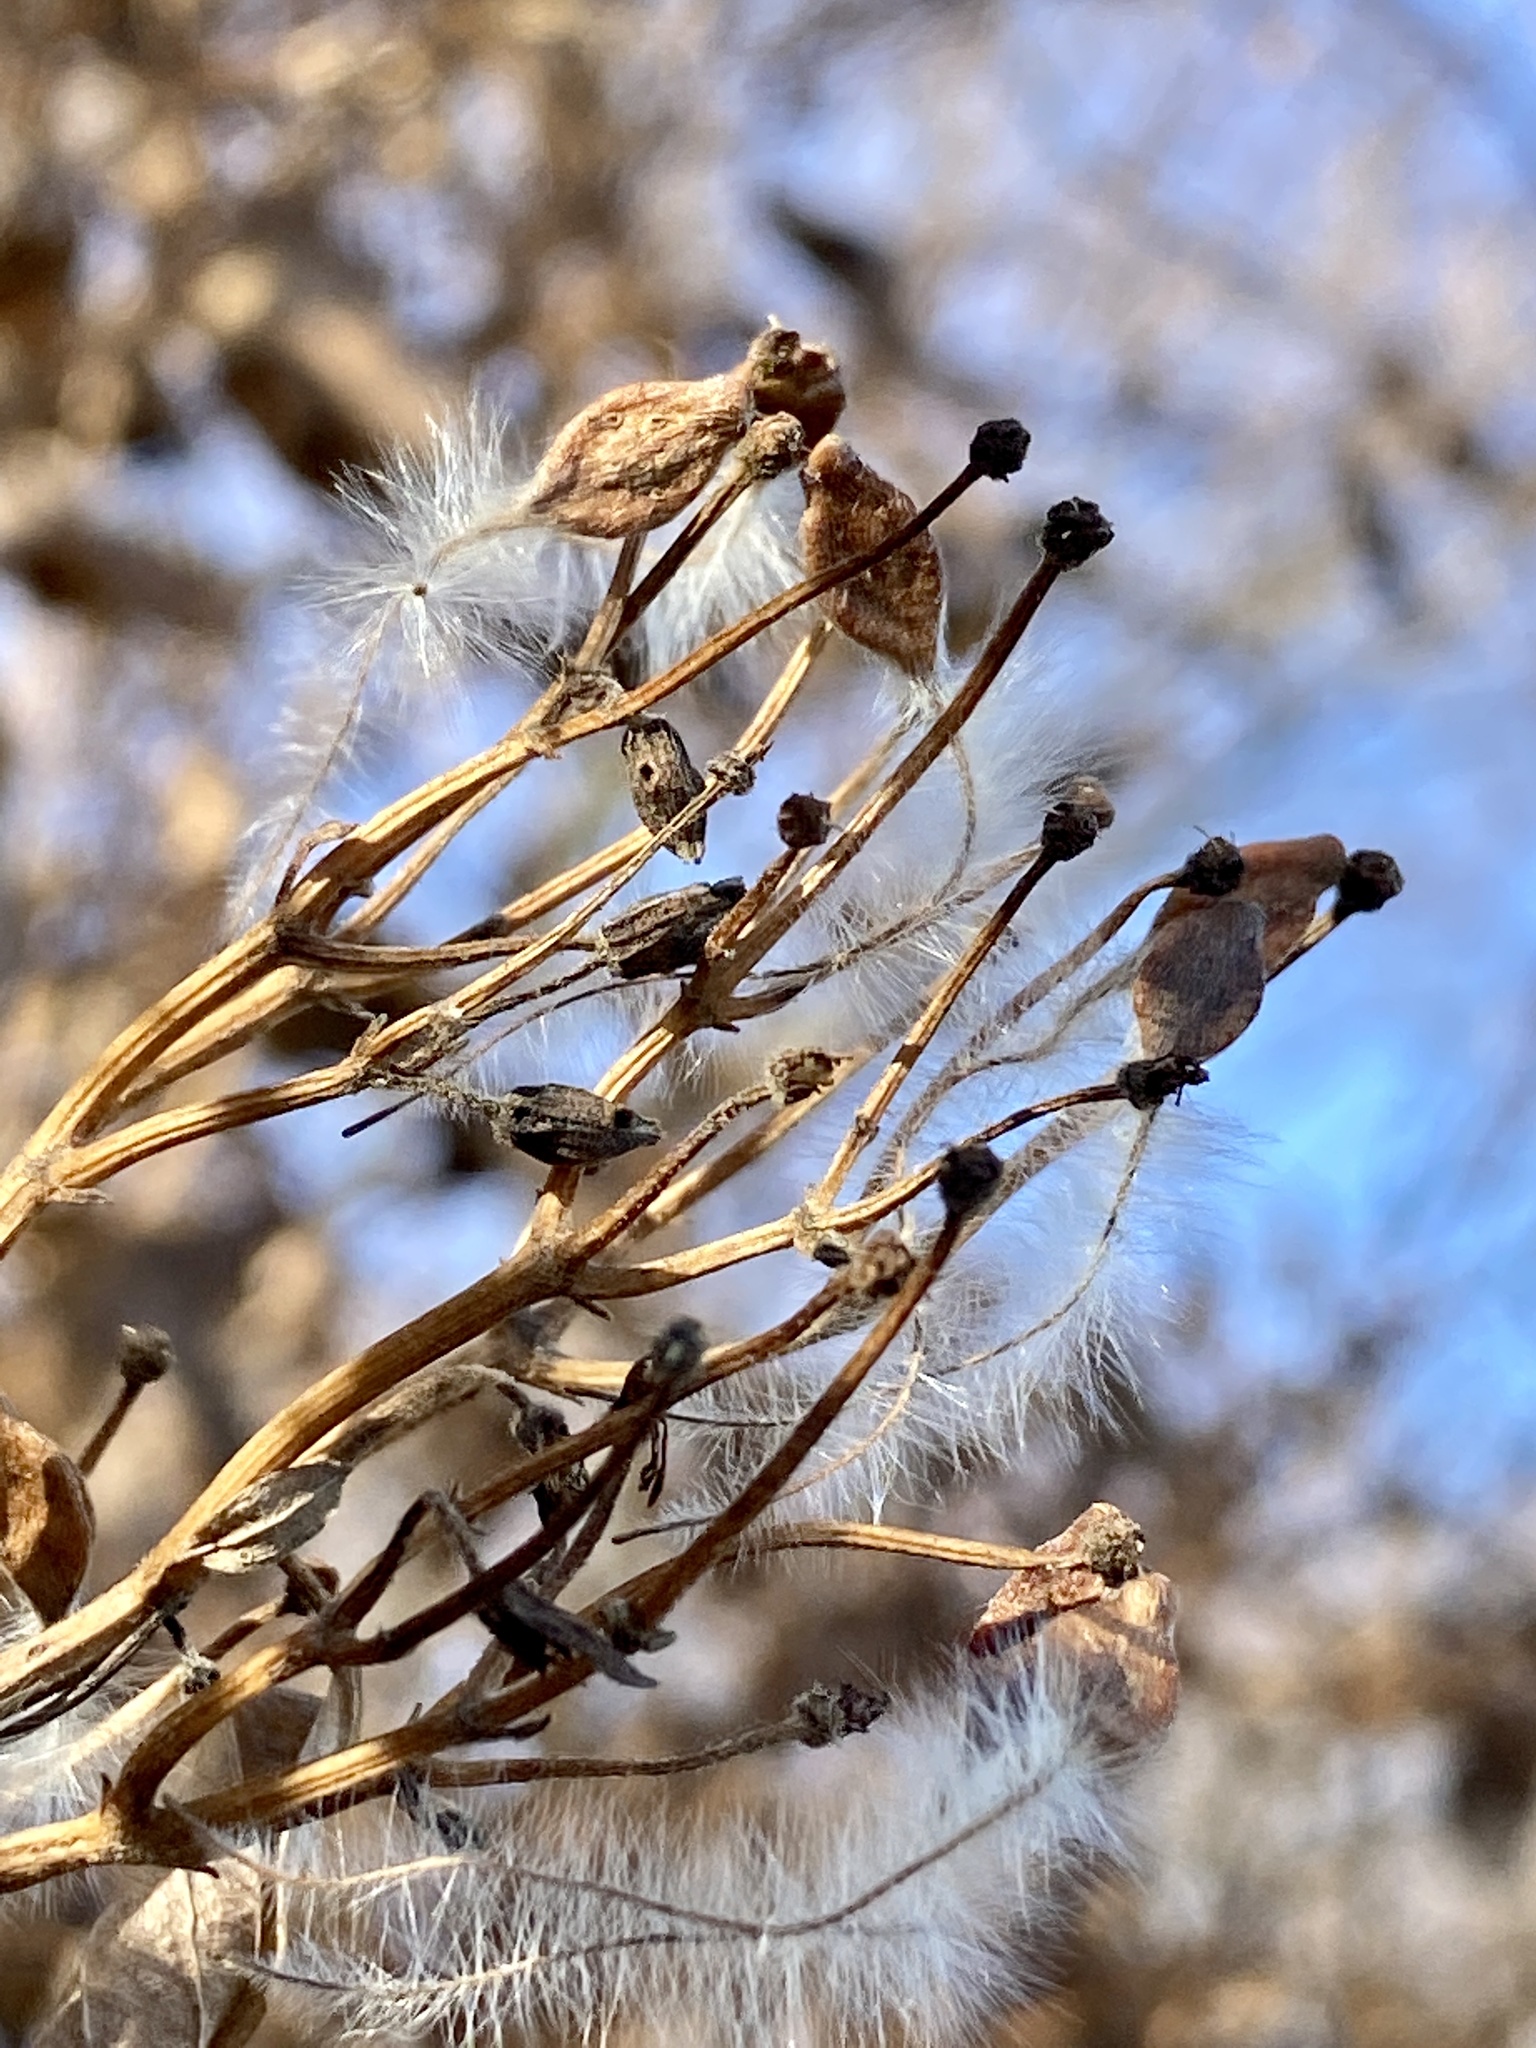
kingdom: Plantae
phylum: Tracheophyta
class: Magnoliopsida
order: Ranunculales
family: Ranunculaceae
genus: Clematis
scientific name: Clematis terniflora
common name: Sweet autumn clematis
